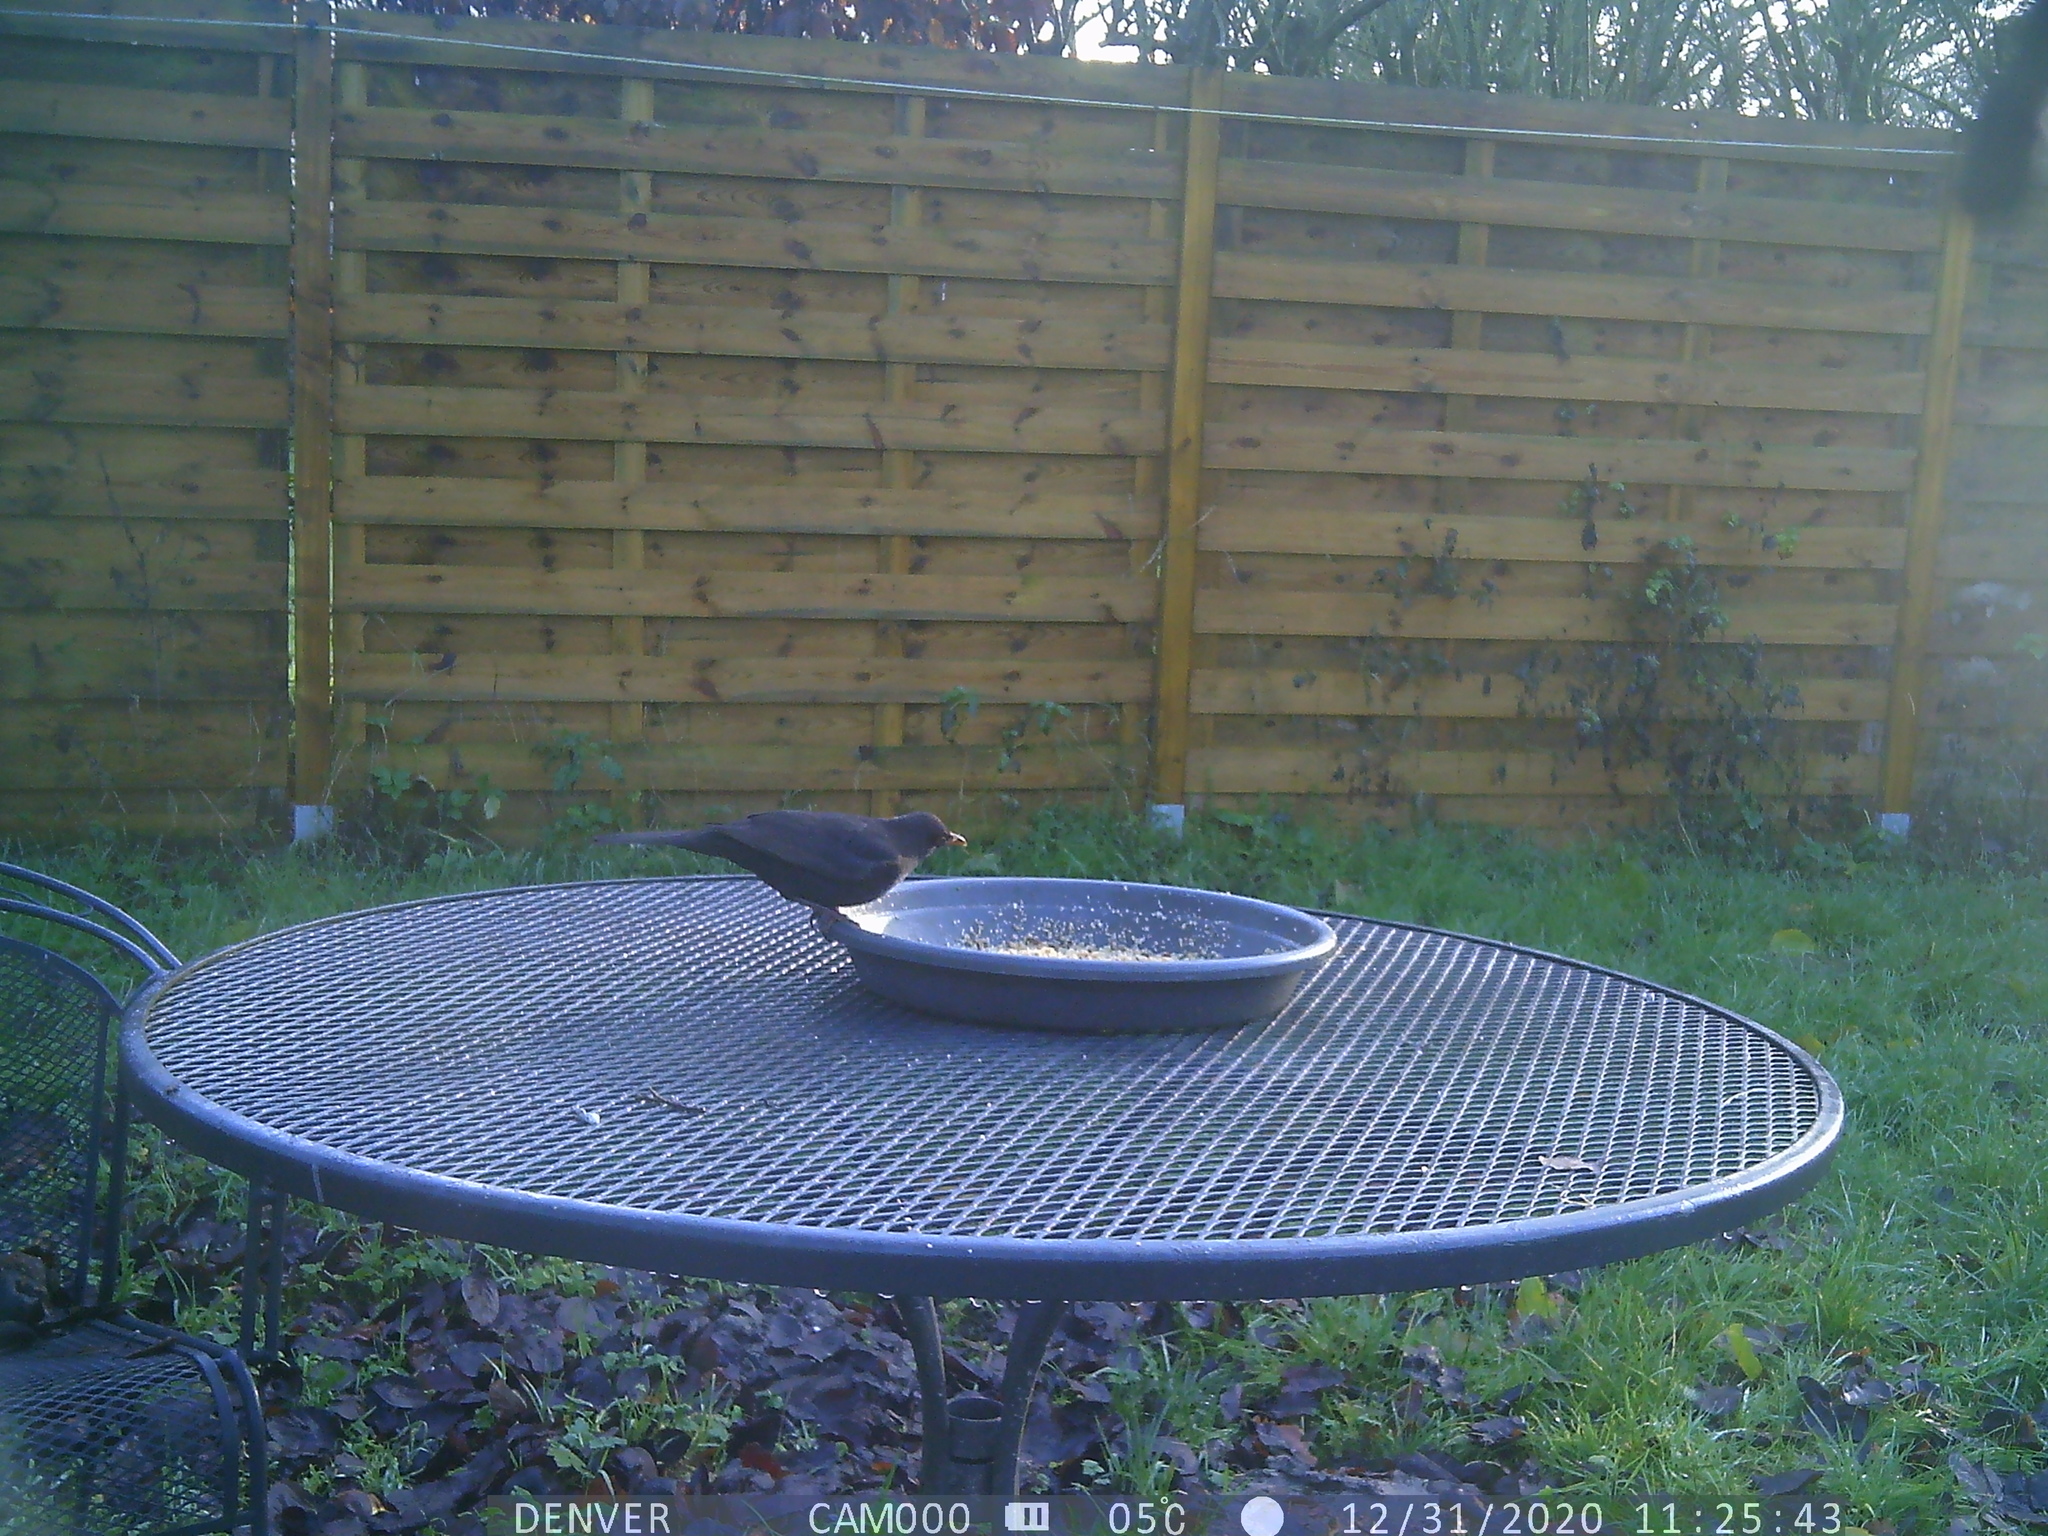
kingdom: Animalia
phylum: Chordata
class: Aves
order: Passeriformes
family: Turdidae
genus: Turdus
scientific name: Turdus merula
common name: Common blackbird
